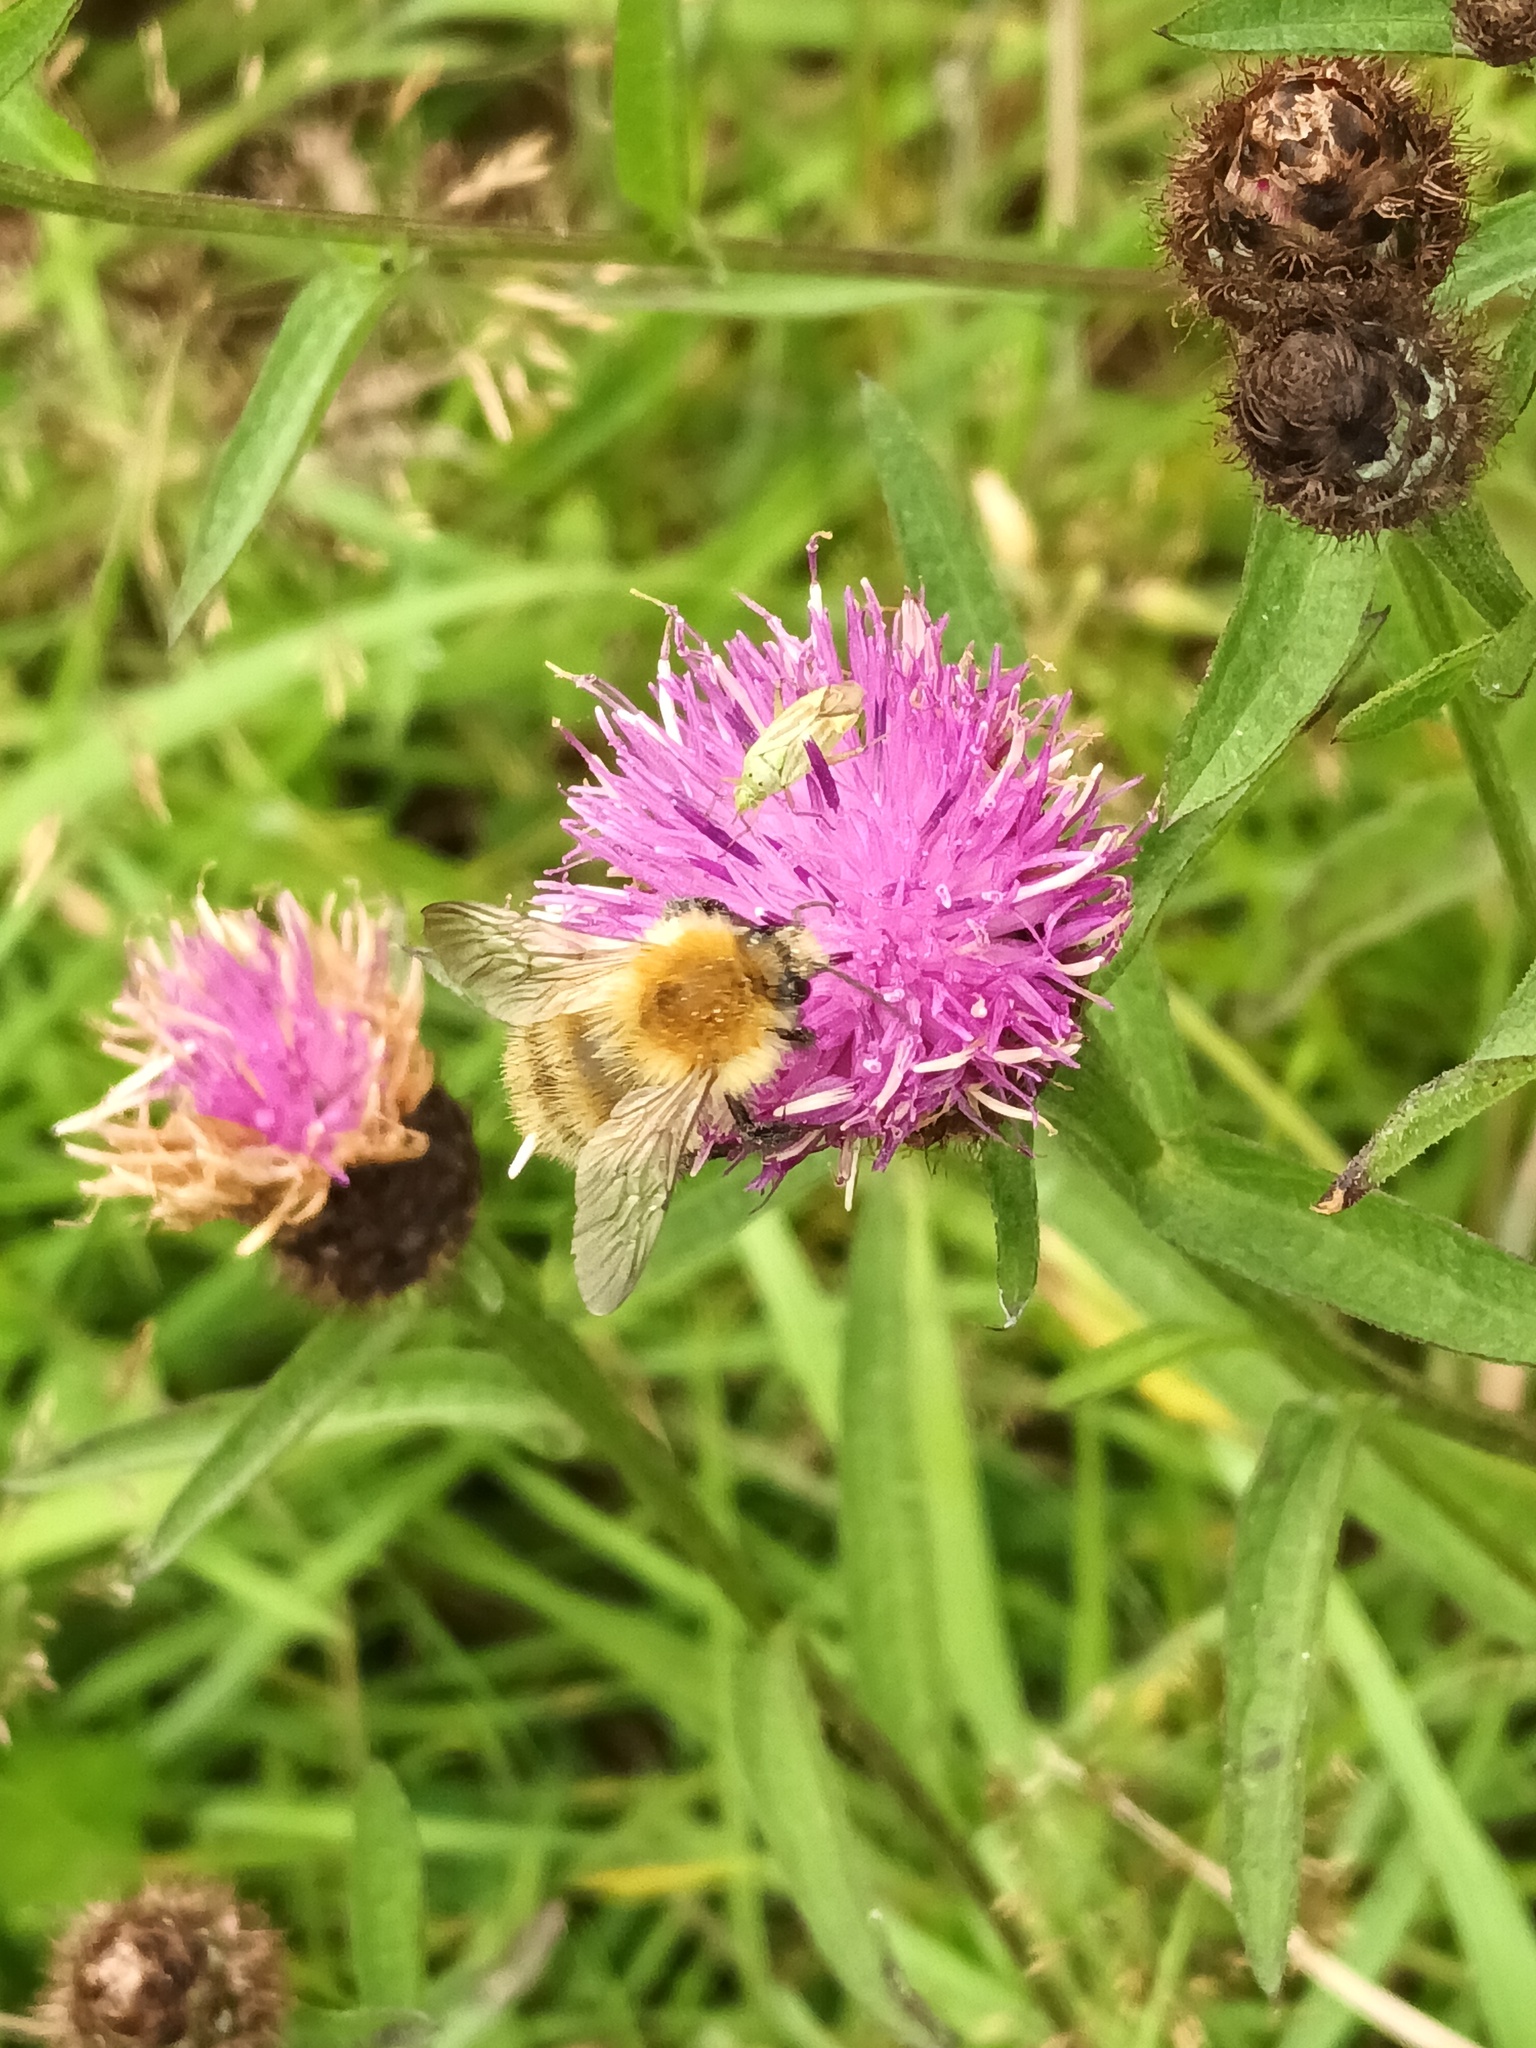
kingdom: Animalia
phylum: Arthropoda
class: Insecta
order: Hymenoptera
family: Apidae
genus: Bombus
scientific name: Bombus pascuorum
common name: Common carder bee
